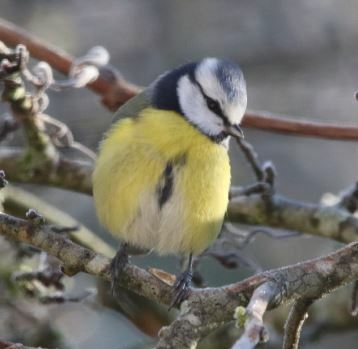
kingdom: Animalia
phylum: Chordata
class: Aves
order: Passeriformes
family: Paridae
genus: Cyanistes
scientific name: Cyanistes caeruleus
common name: Eurasian blue tit
